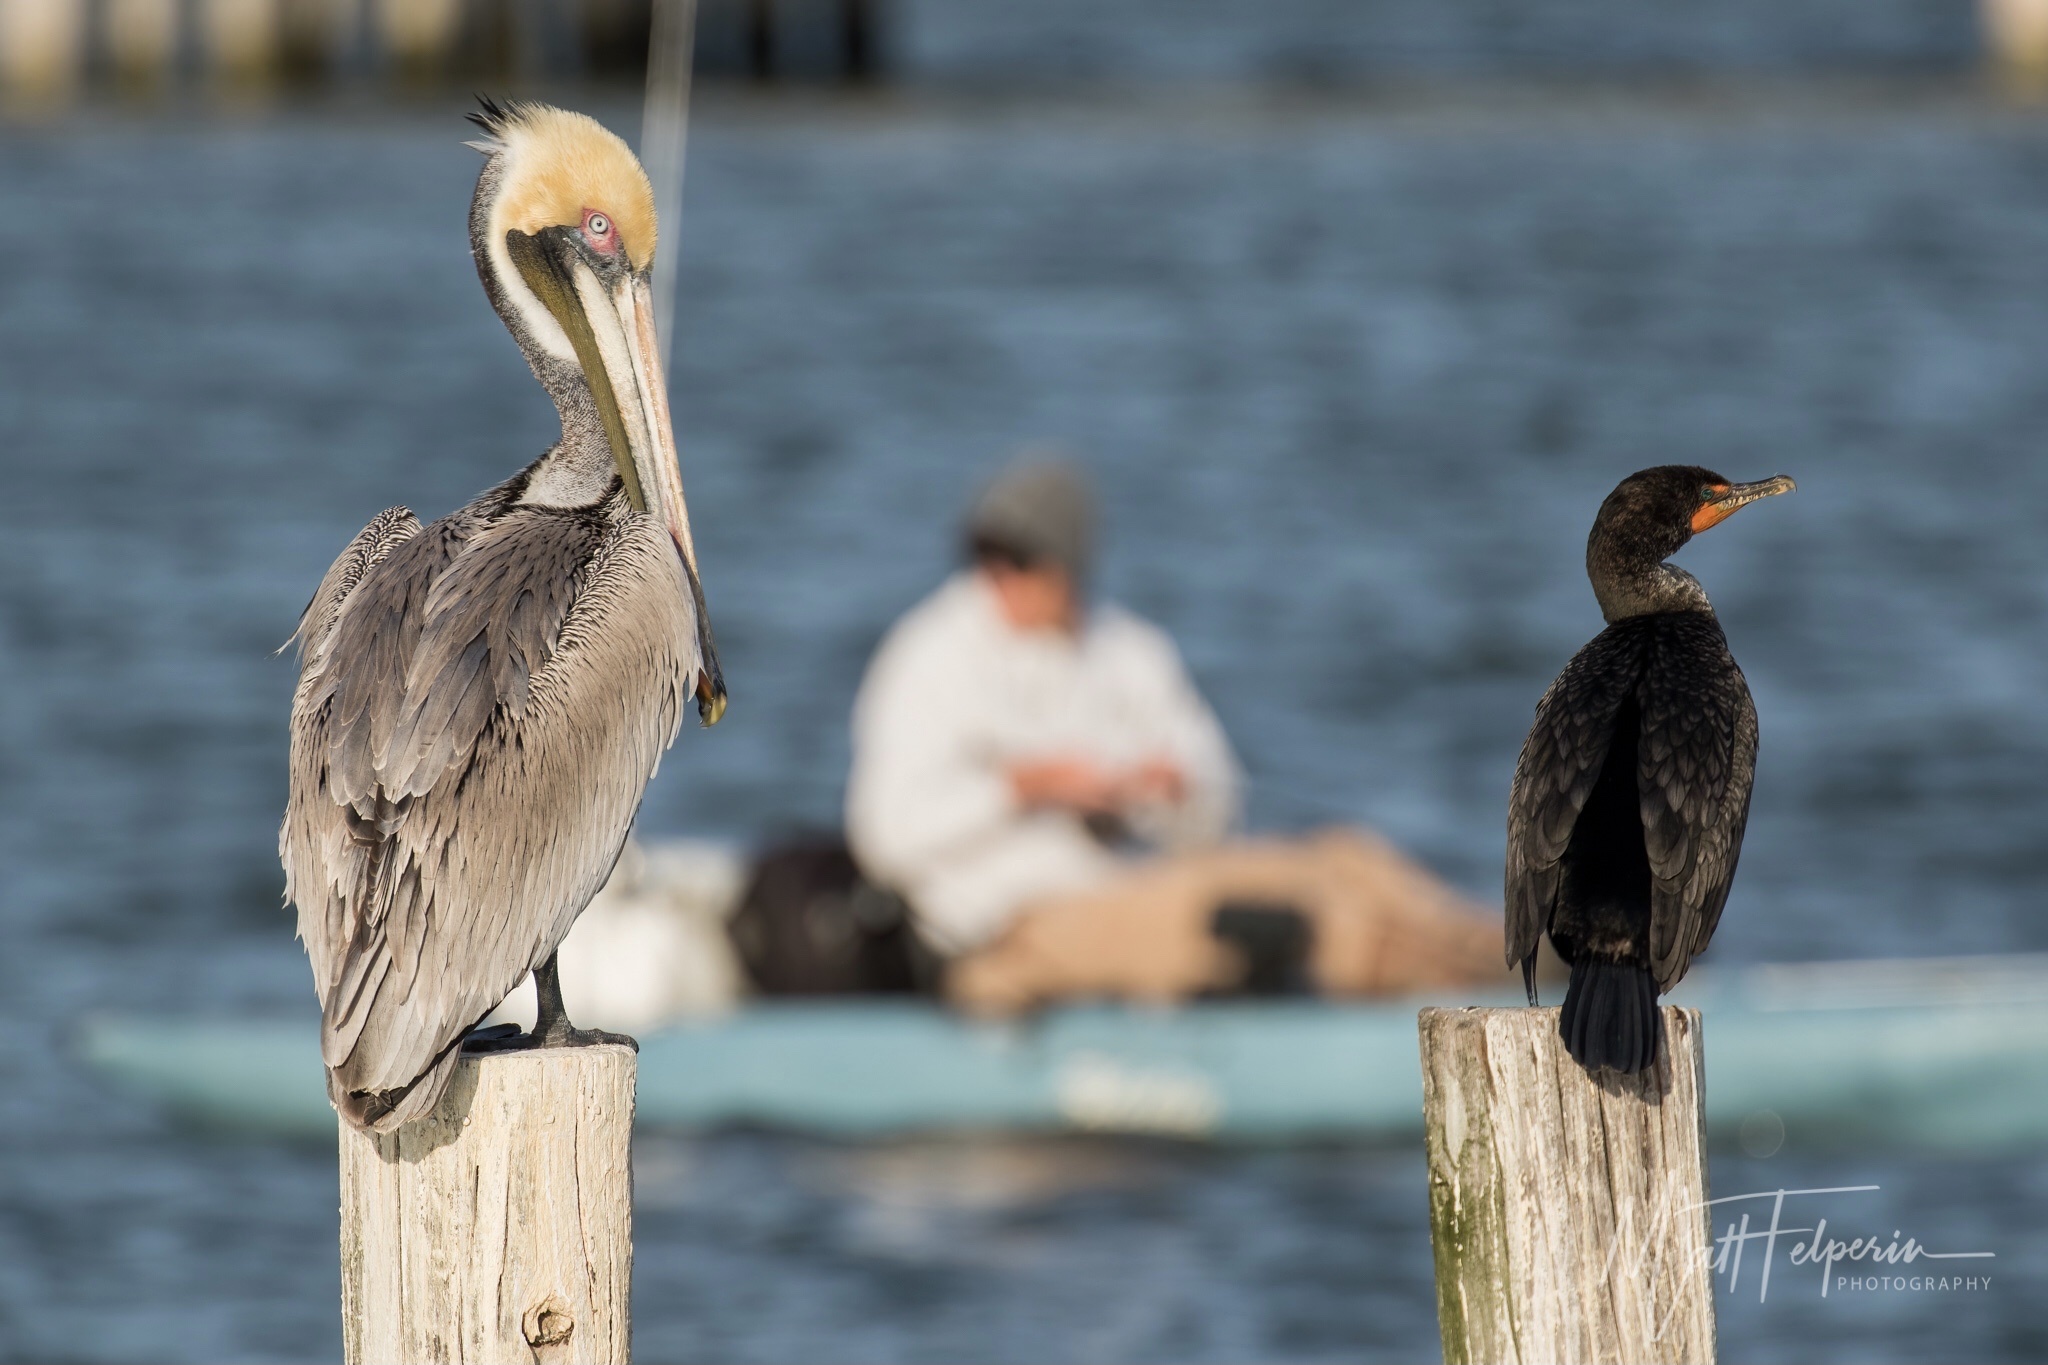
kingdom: Animalia
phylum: Chordata
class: Aves
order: Pelecaniformes
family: Pelecanidae
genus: Pelecanus
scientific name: Pelecanus occidentalis
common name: Brown pelican
